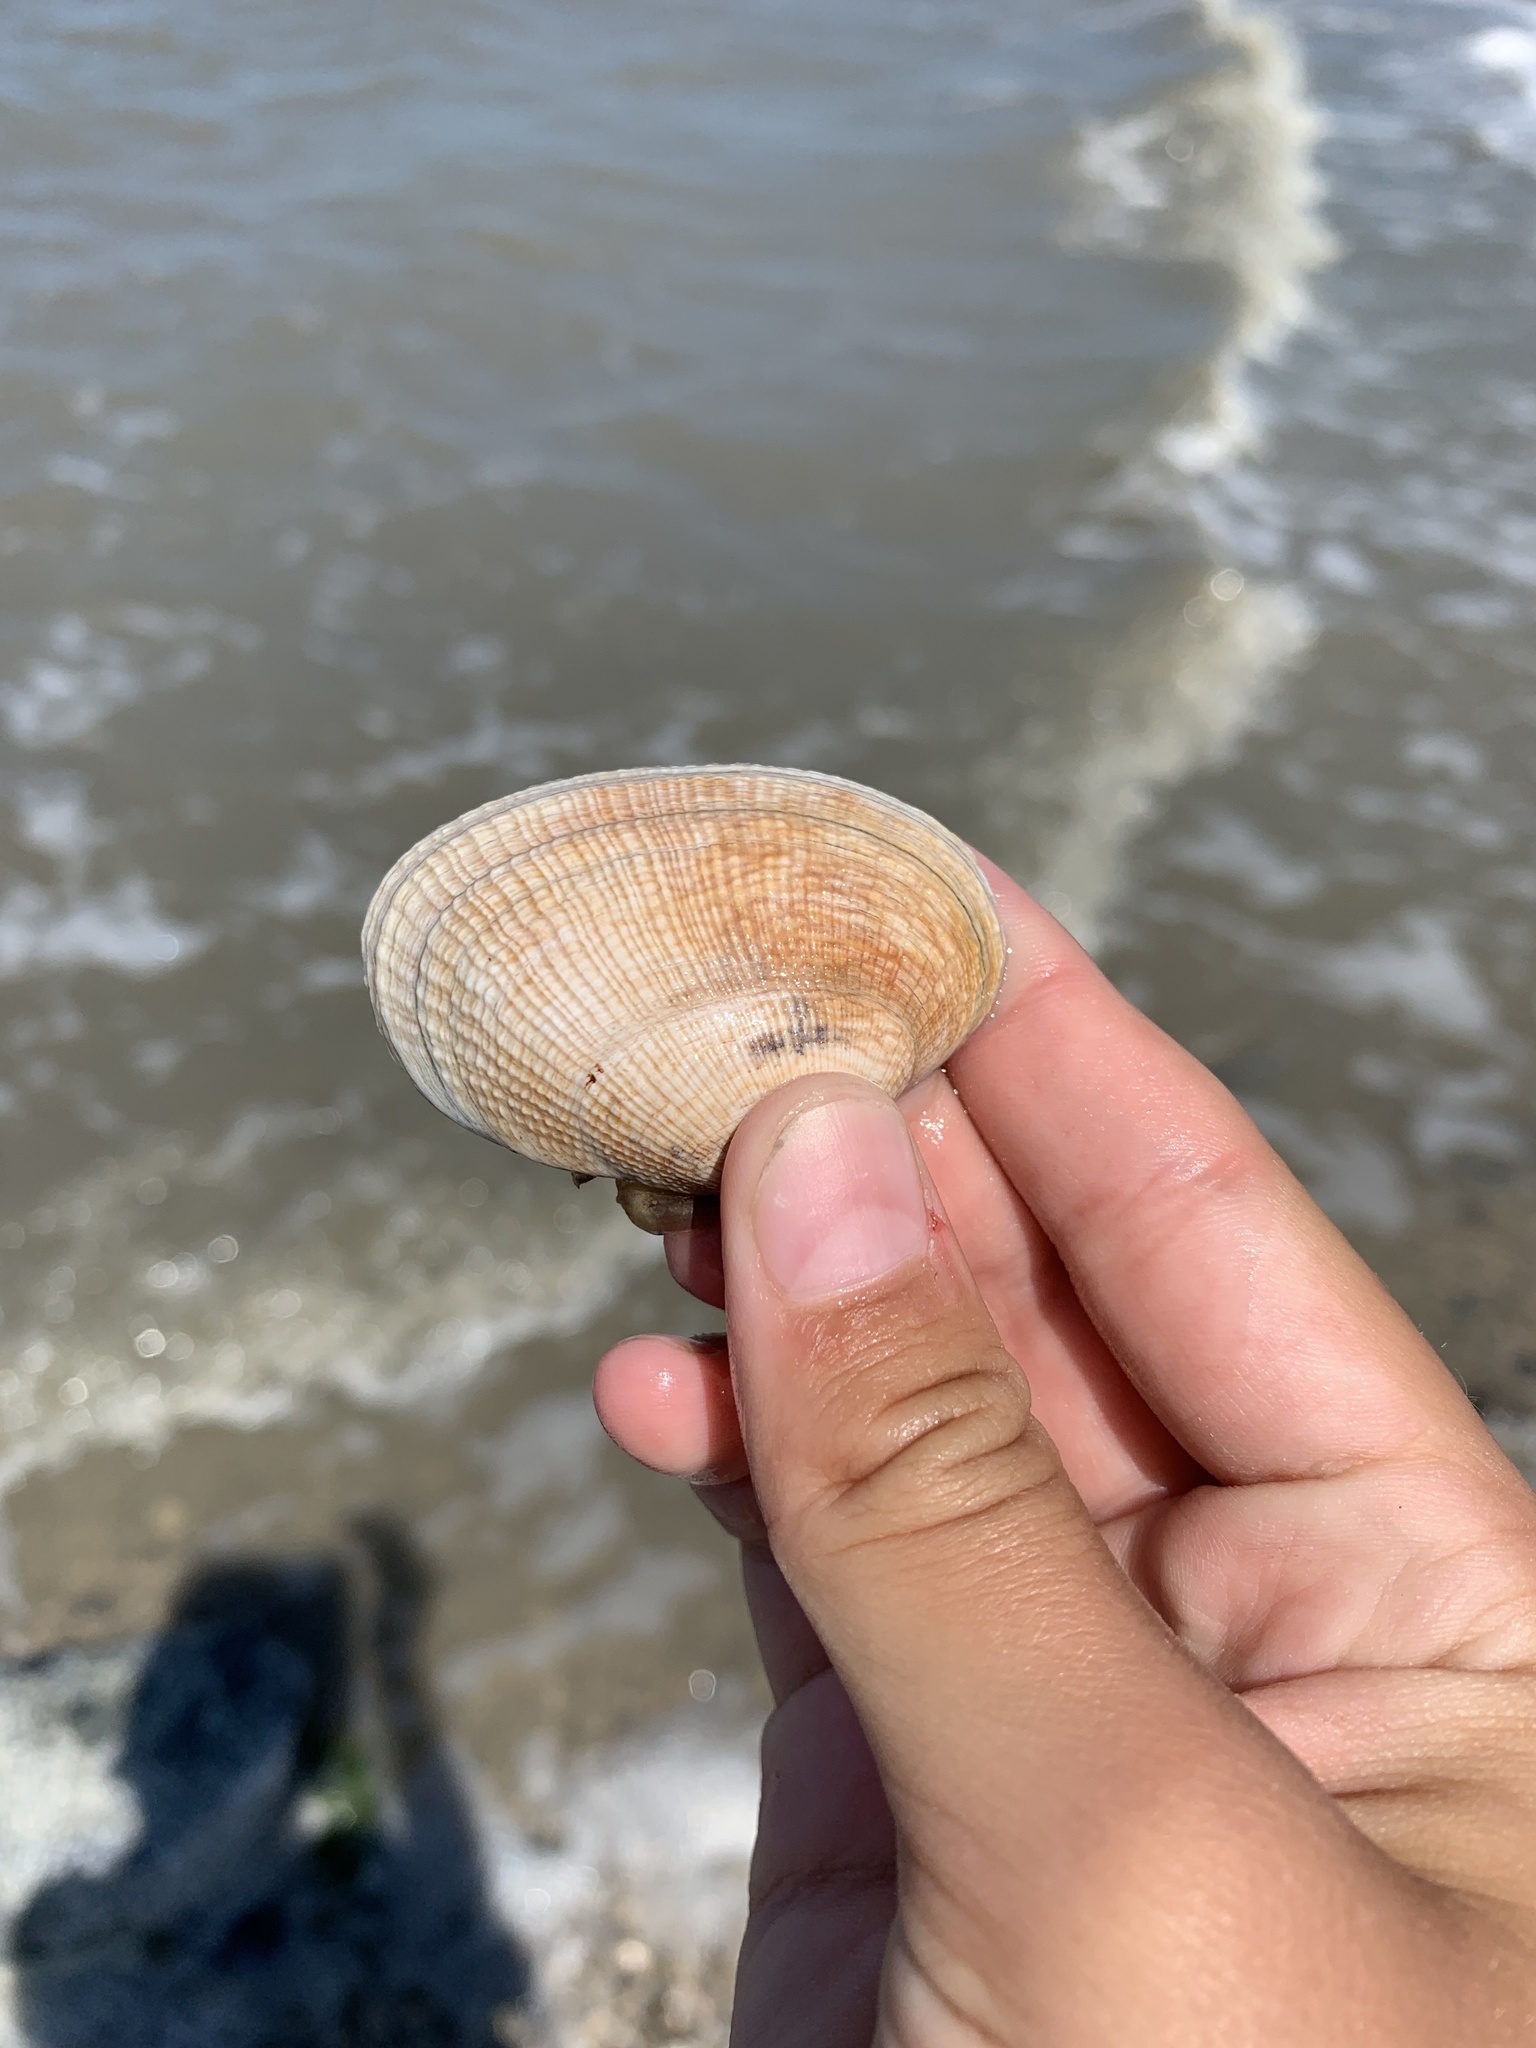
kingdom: Animalia
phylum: Mollusca
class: Bivalvia
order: Venerida
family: Veneridae
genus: Ruditapes
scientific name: Ruditapes philippinarum
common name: Manila clam
